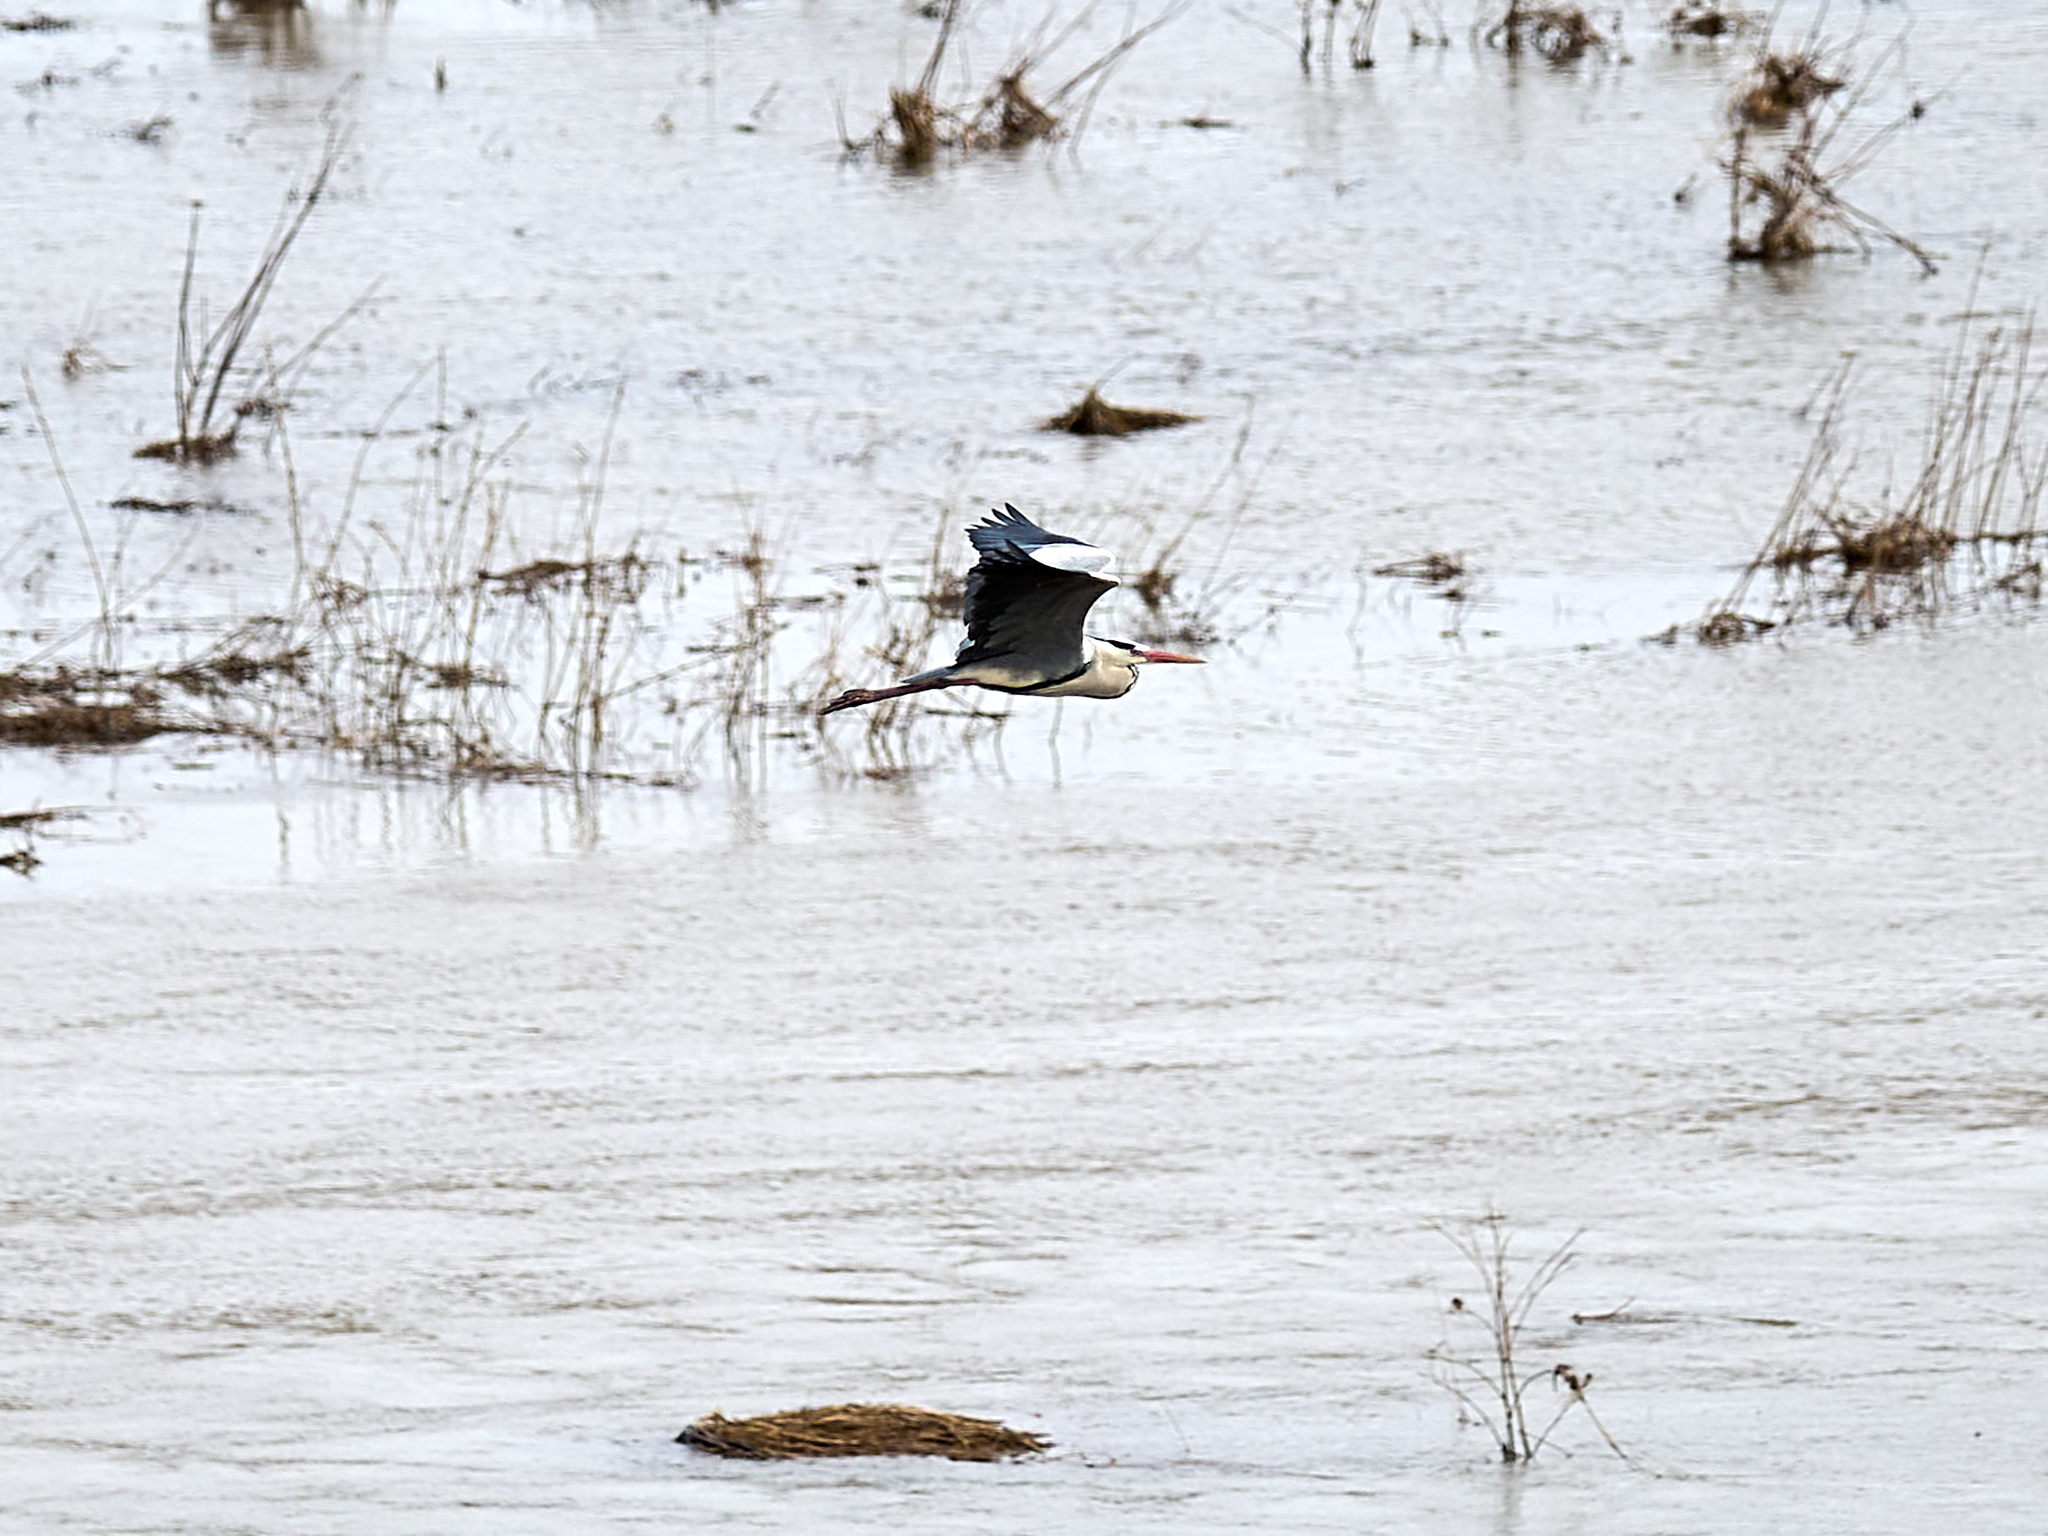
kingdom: Animalia
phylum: Chordata
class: Aves
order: Pelecaniformes
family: Ardeidae
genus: Ardea
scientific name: Ardea cinerea
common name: Grey heron
